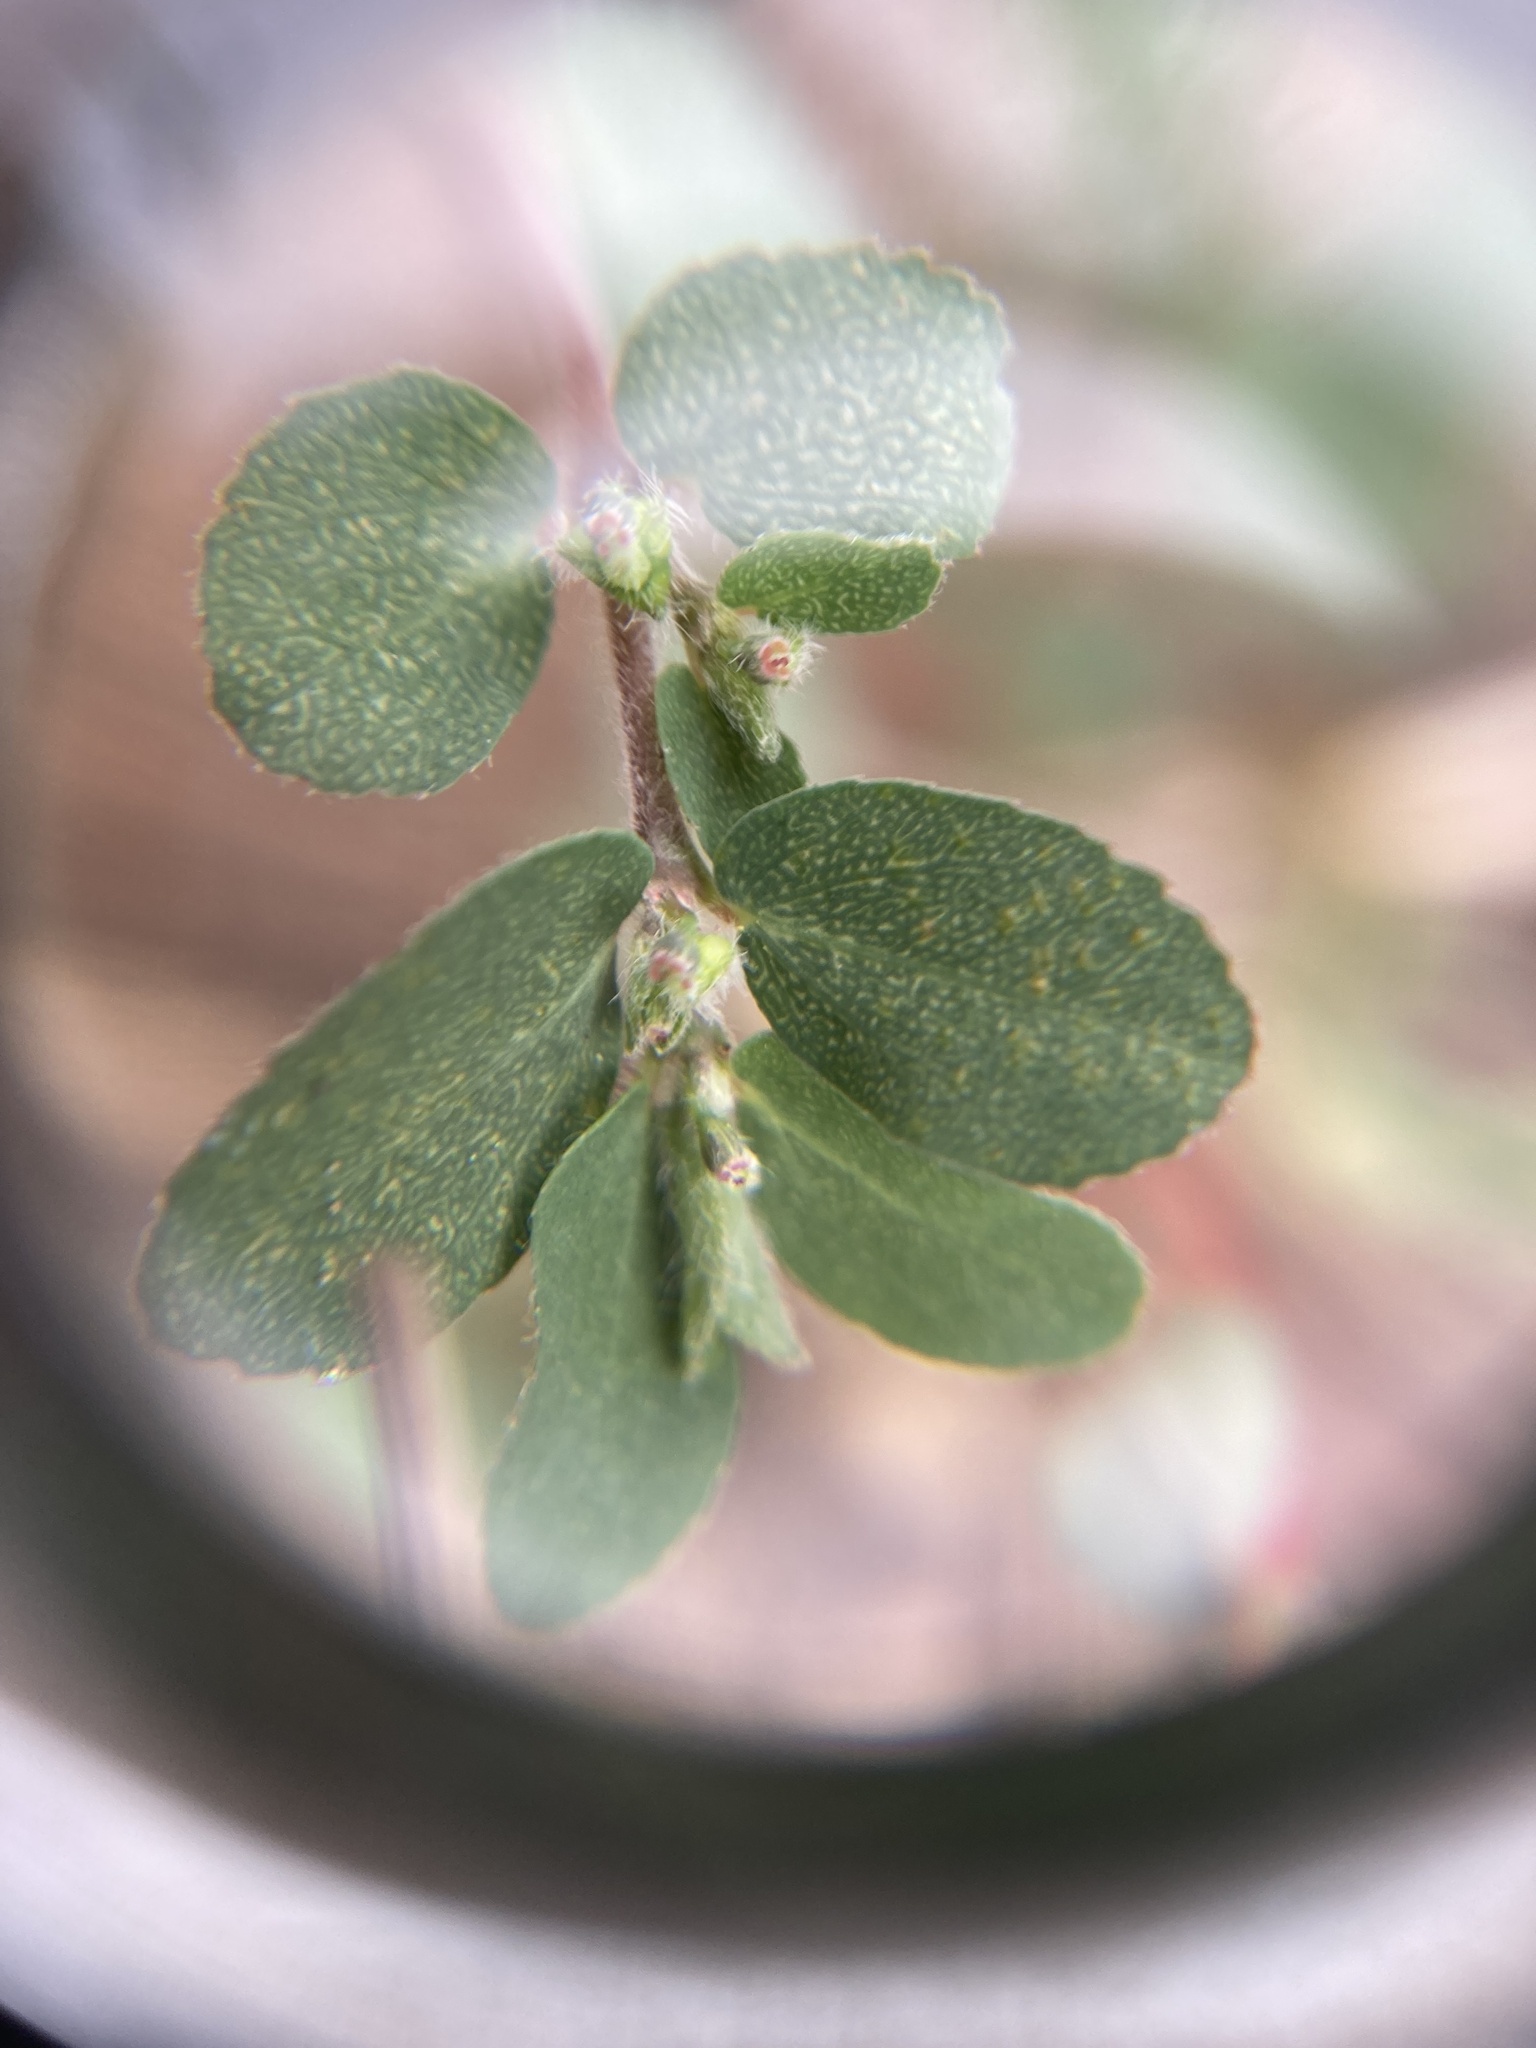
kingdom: Plantae
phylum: Tracheophyta
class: Magnoliopsida
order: Malpighiales
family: Euphorbiaceae
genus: Euphorbia
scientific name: Euphorbia prostrata
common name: Prostrate sandmat
